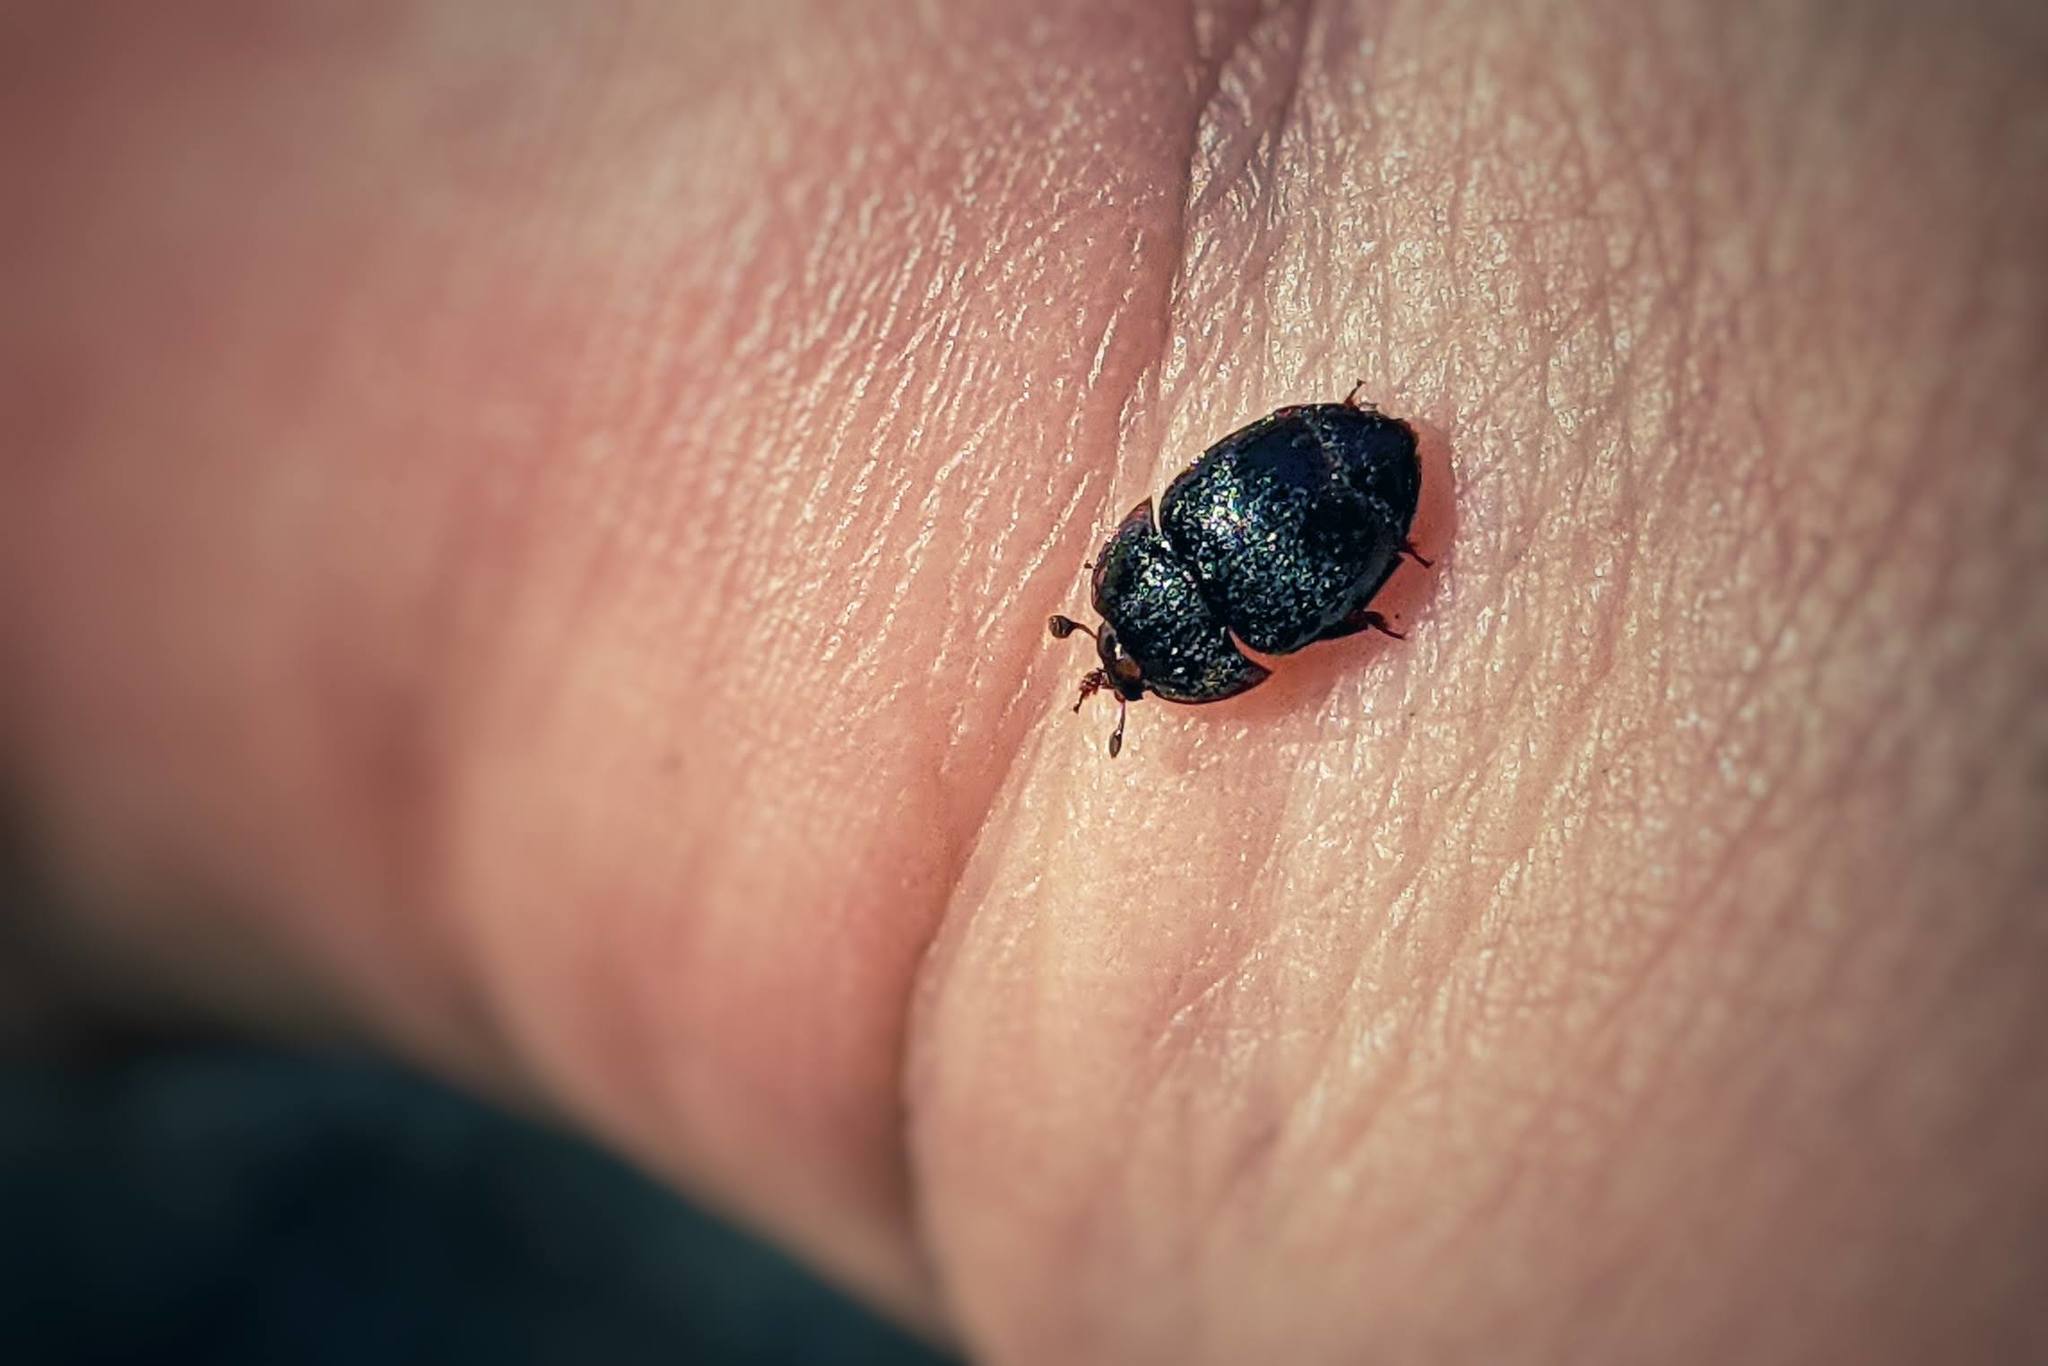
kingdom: Animalia
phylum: Arthropoda
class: Insecta
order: Coleoptera
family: Nitidulidae
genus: Aethina
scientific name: Aethina tumida
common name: Small hive beetle
